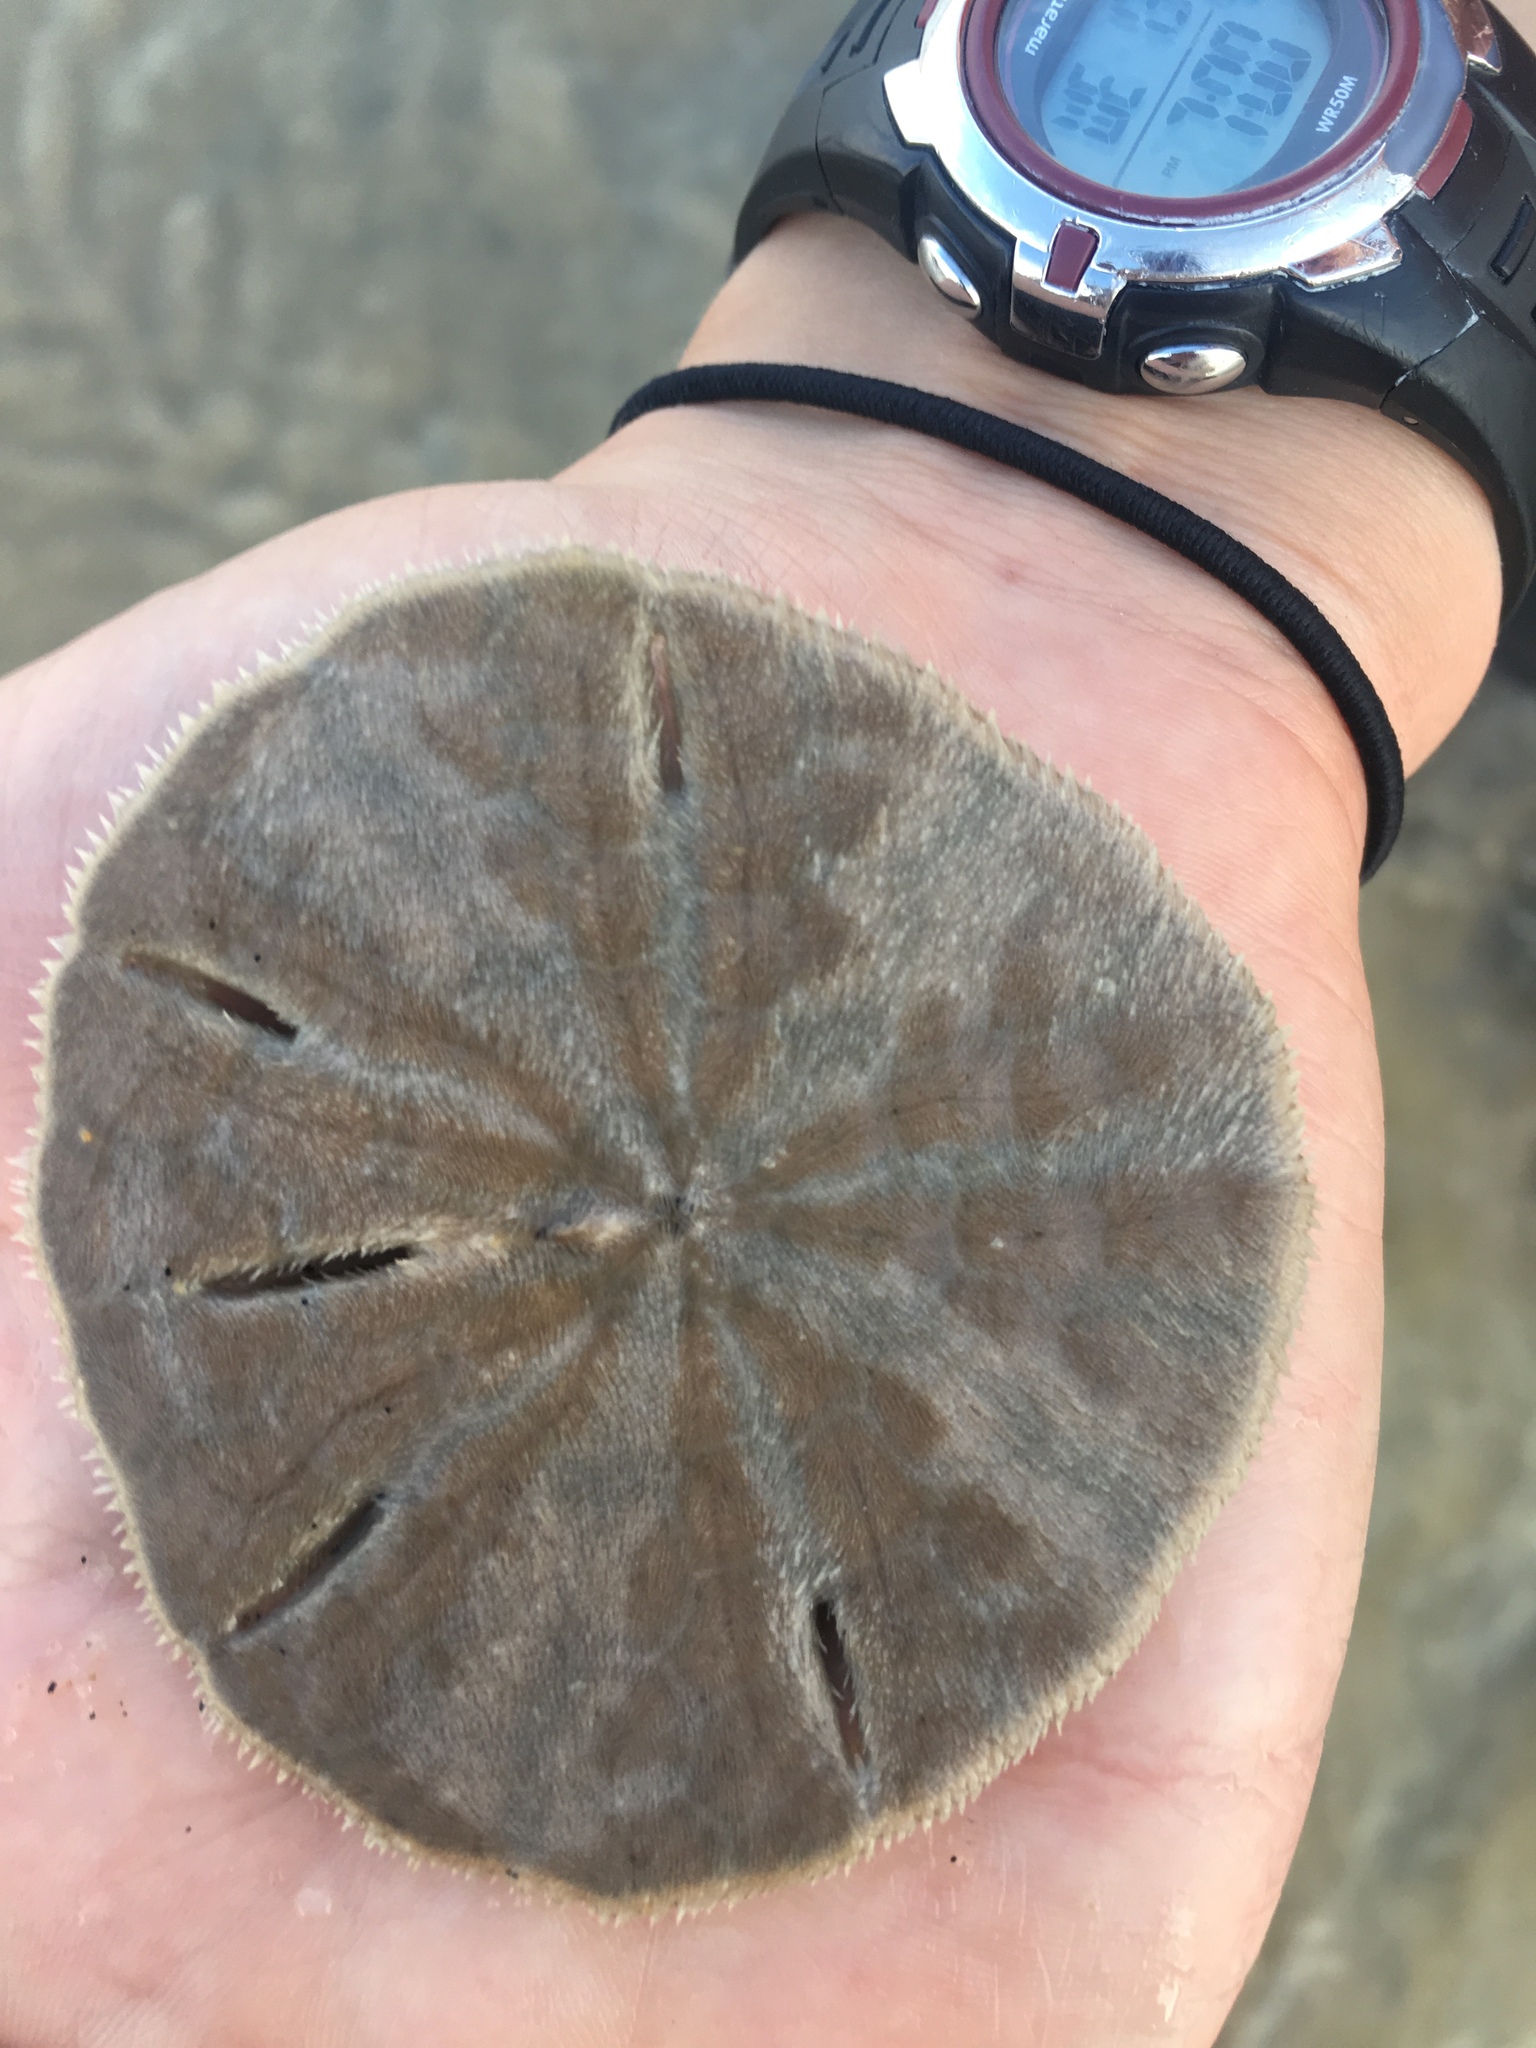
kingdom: Animalia
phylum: Echinodermata
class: Echinoidea
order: Echinolampadacea
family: Mellitidae
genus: Lanthonia
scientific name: Lanthonia grantii
